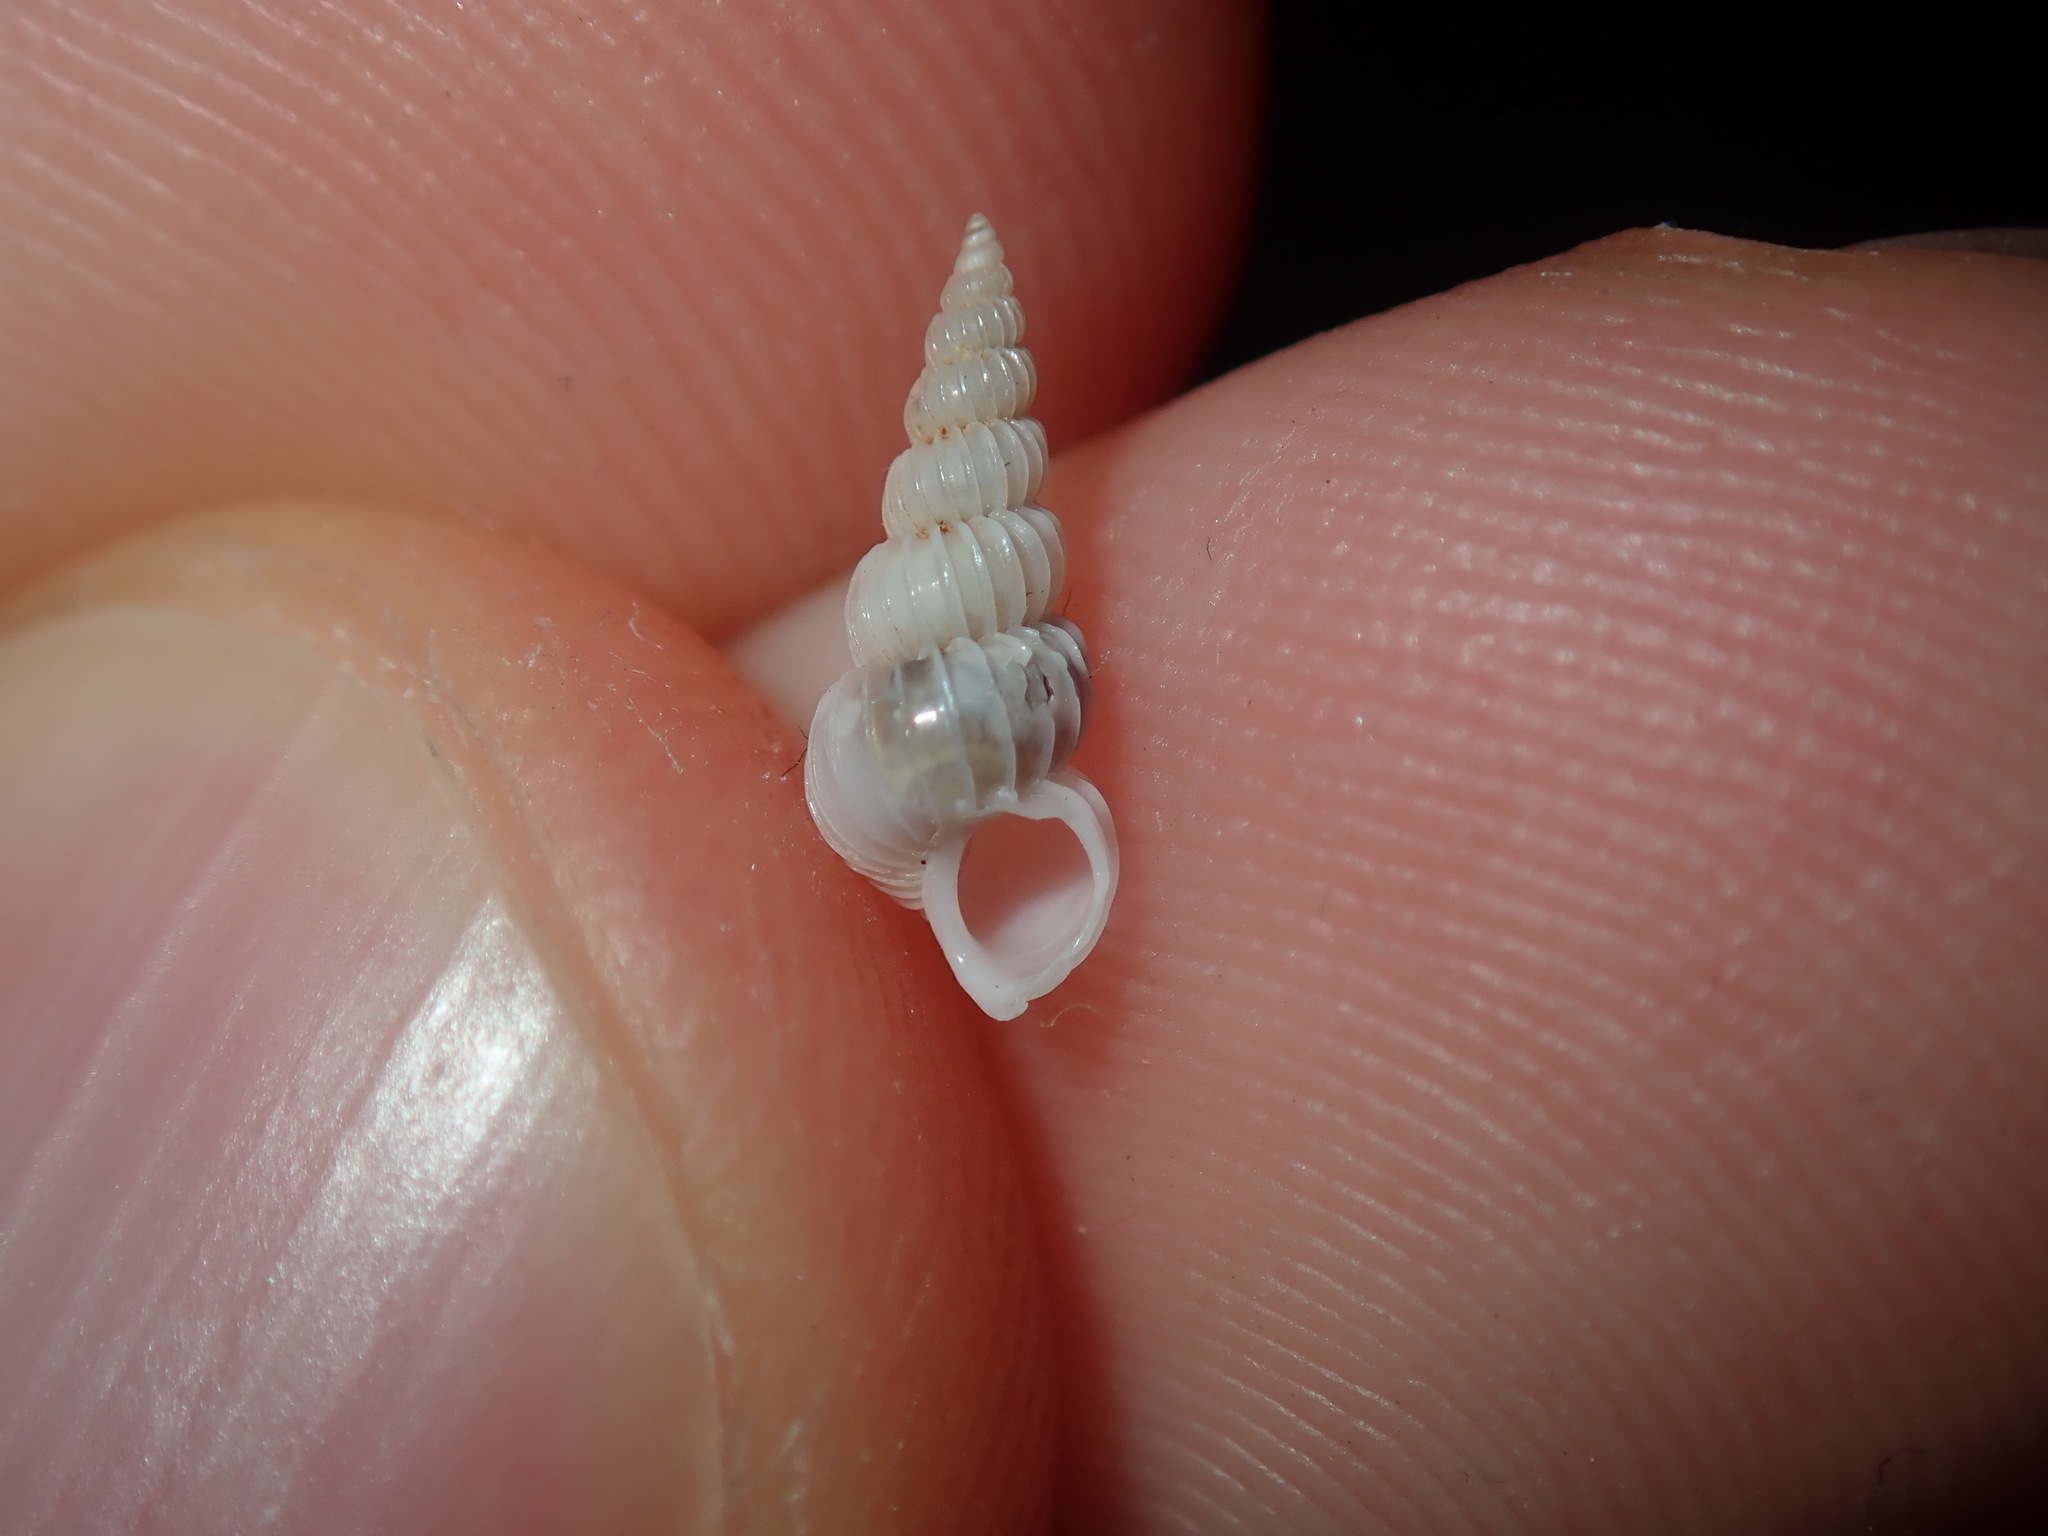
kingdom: Animalia
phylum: Mollusca
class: Gastropoda
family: Epitoniidae
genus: Epitonium
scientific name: Epitonium jukesianum
